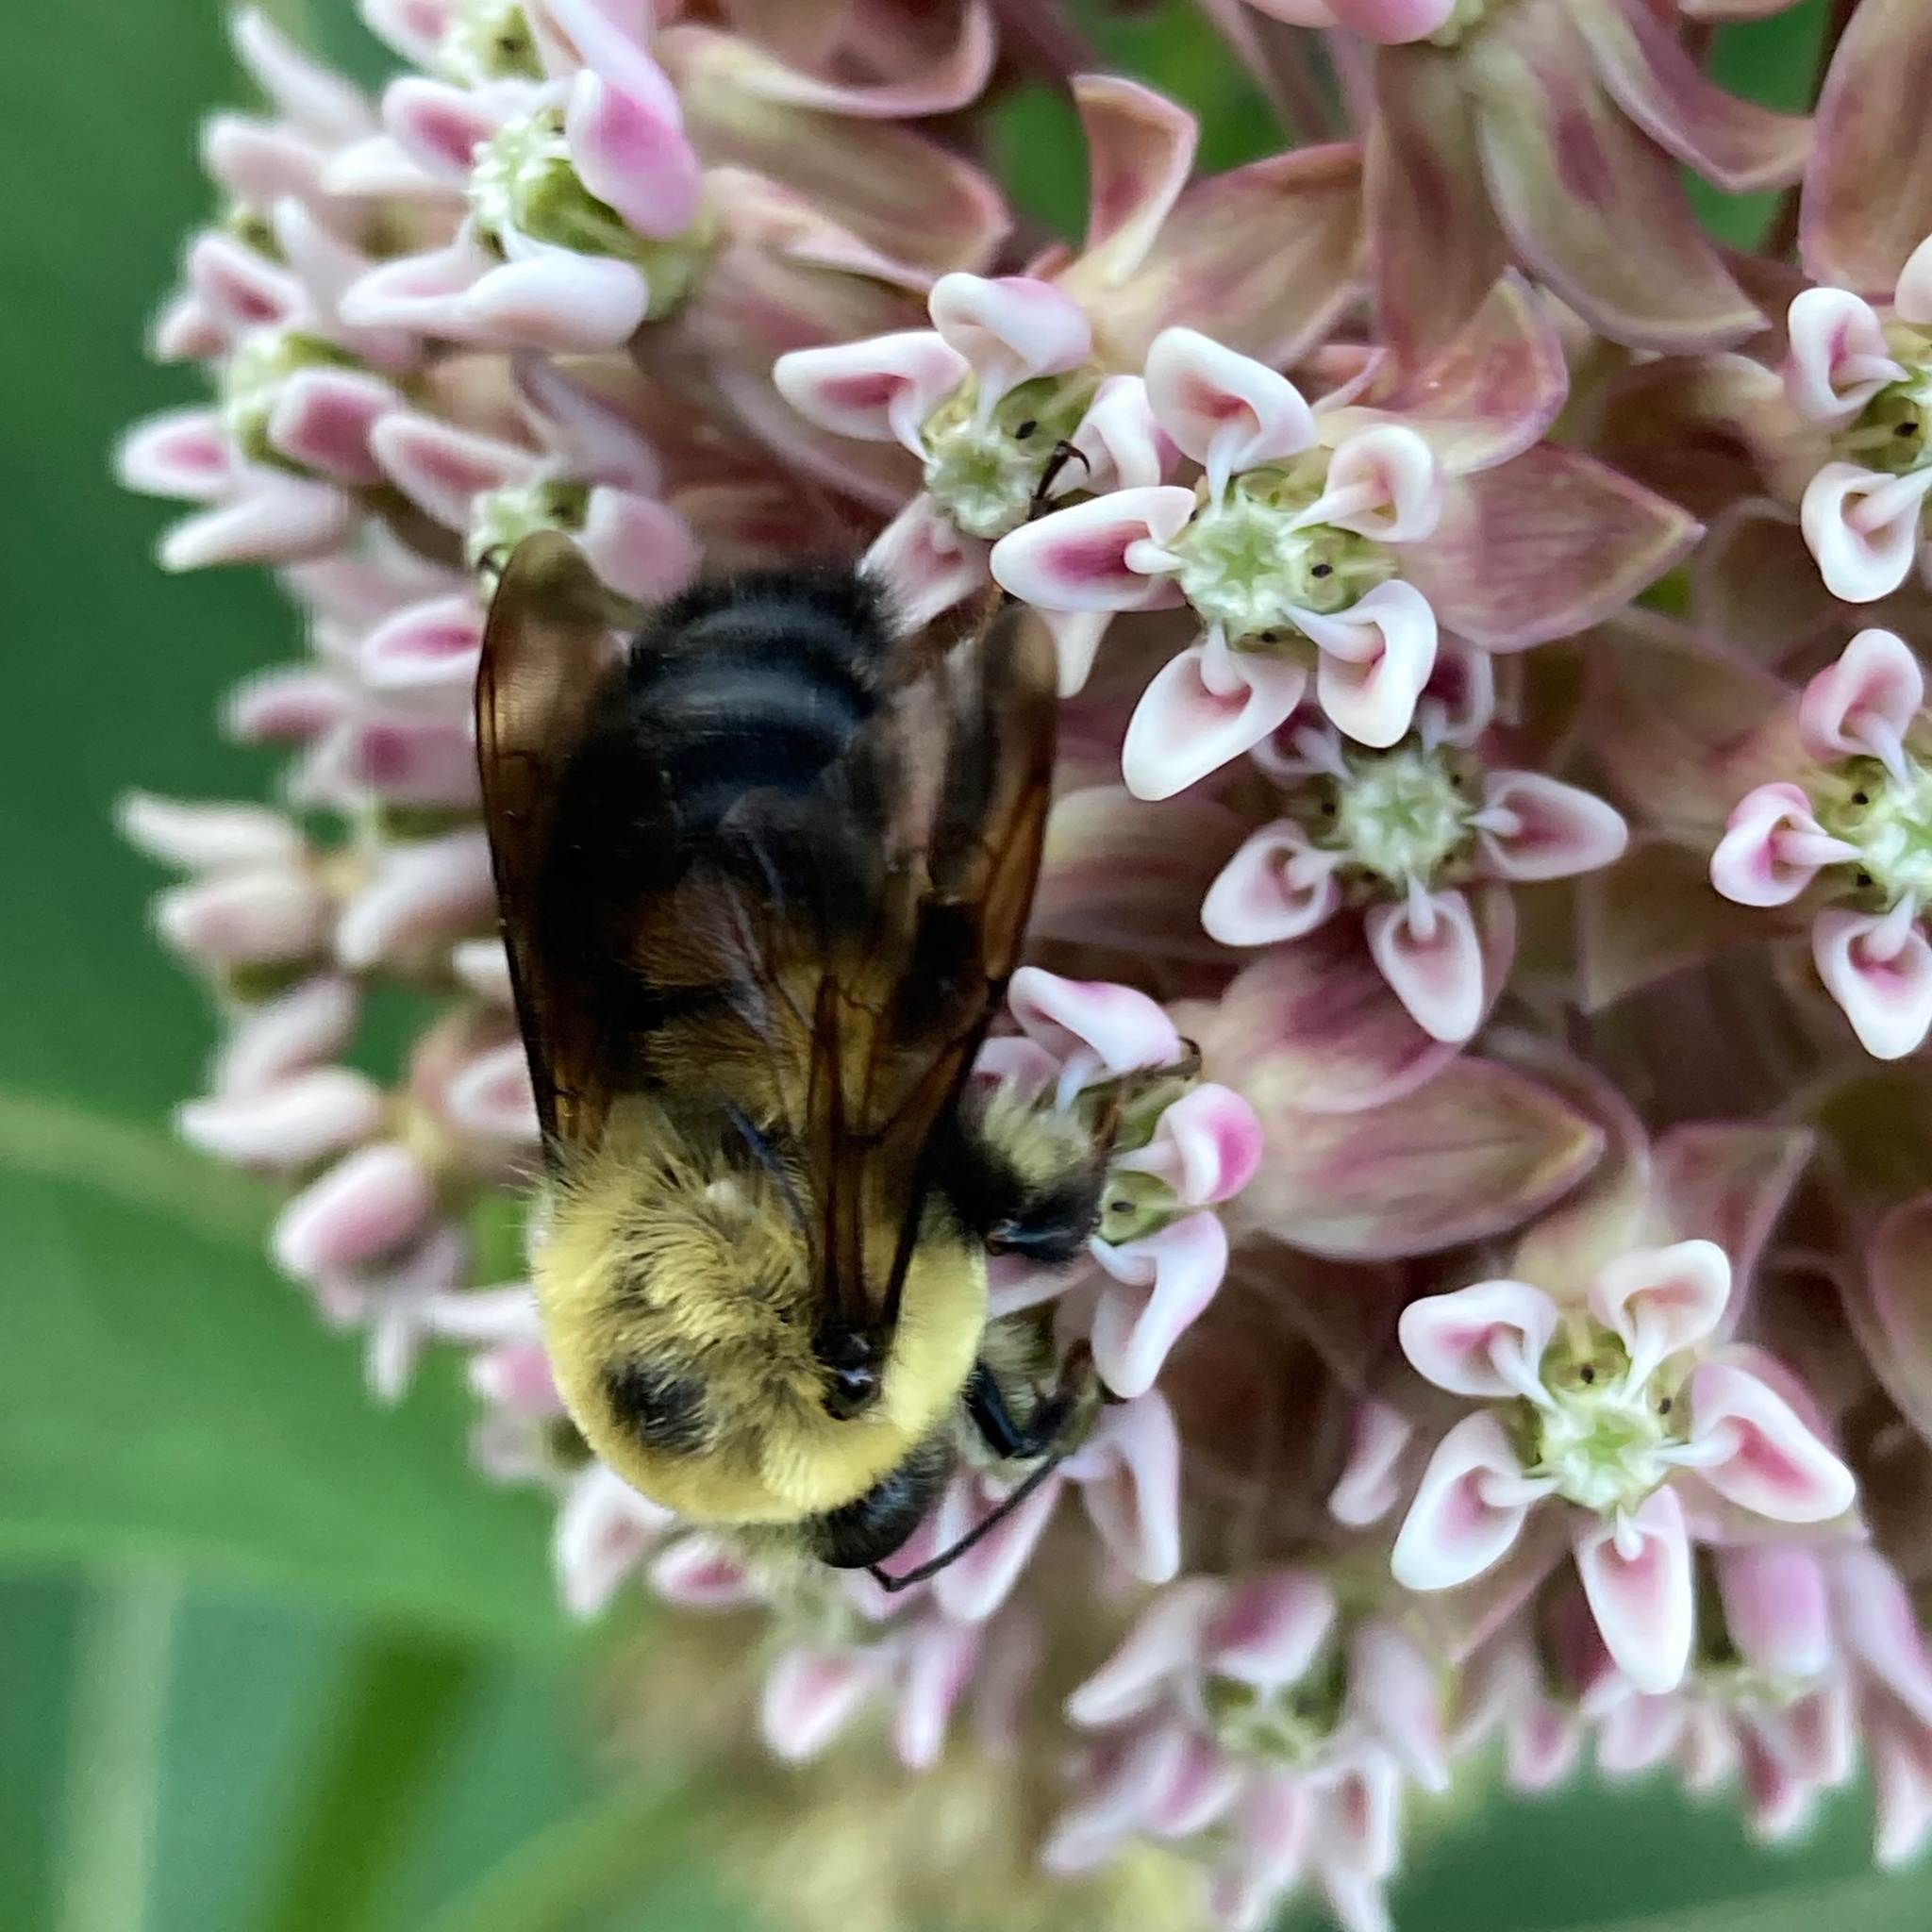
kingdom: Animalia
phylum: Arthropoda
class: Insecta
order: Hymenoptera
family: Apidae
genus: Bombus
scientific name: Bombus griseocollis
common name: Brown-belted bumble bee
